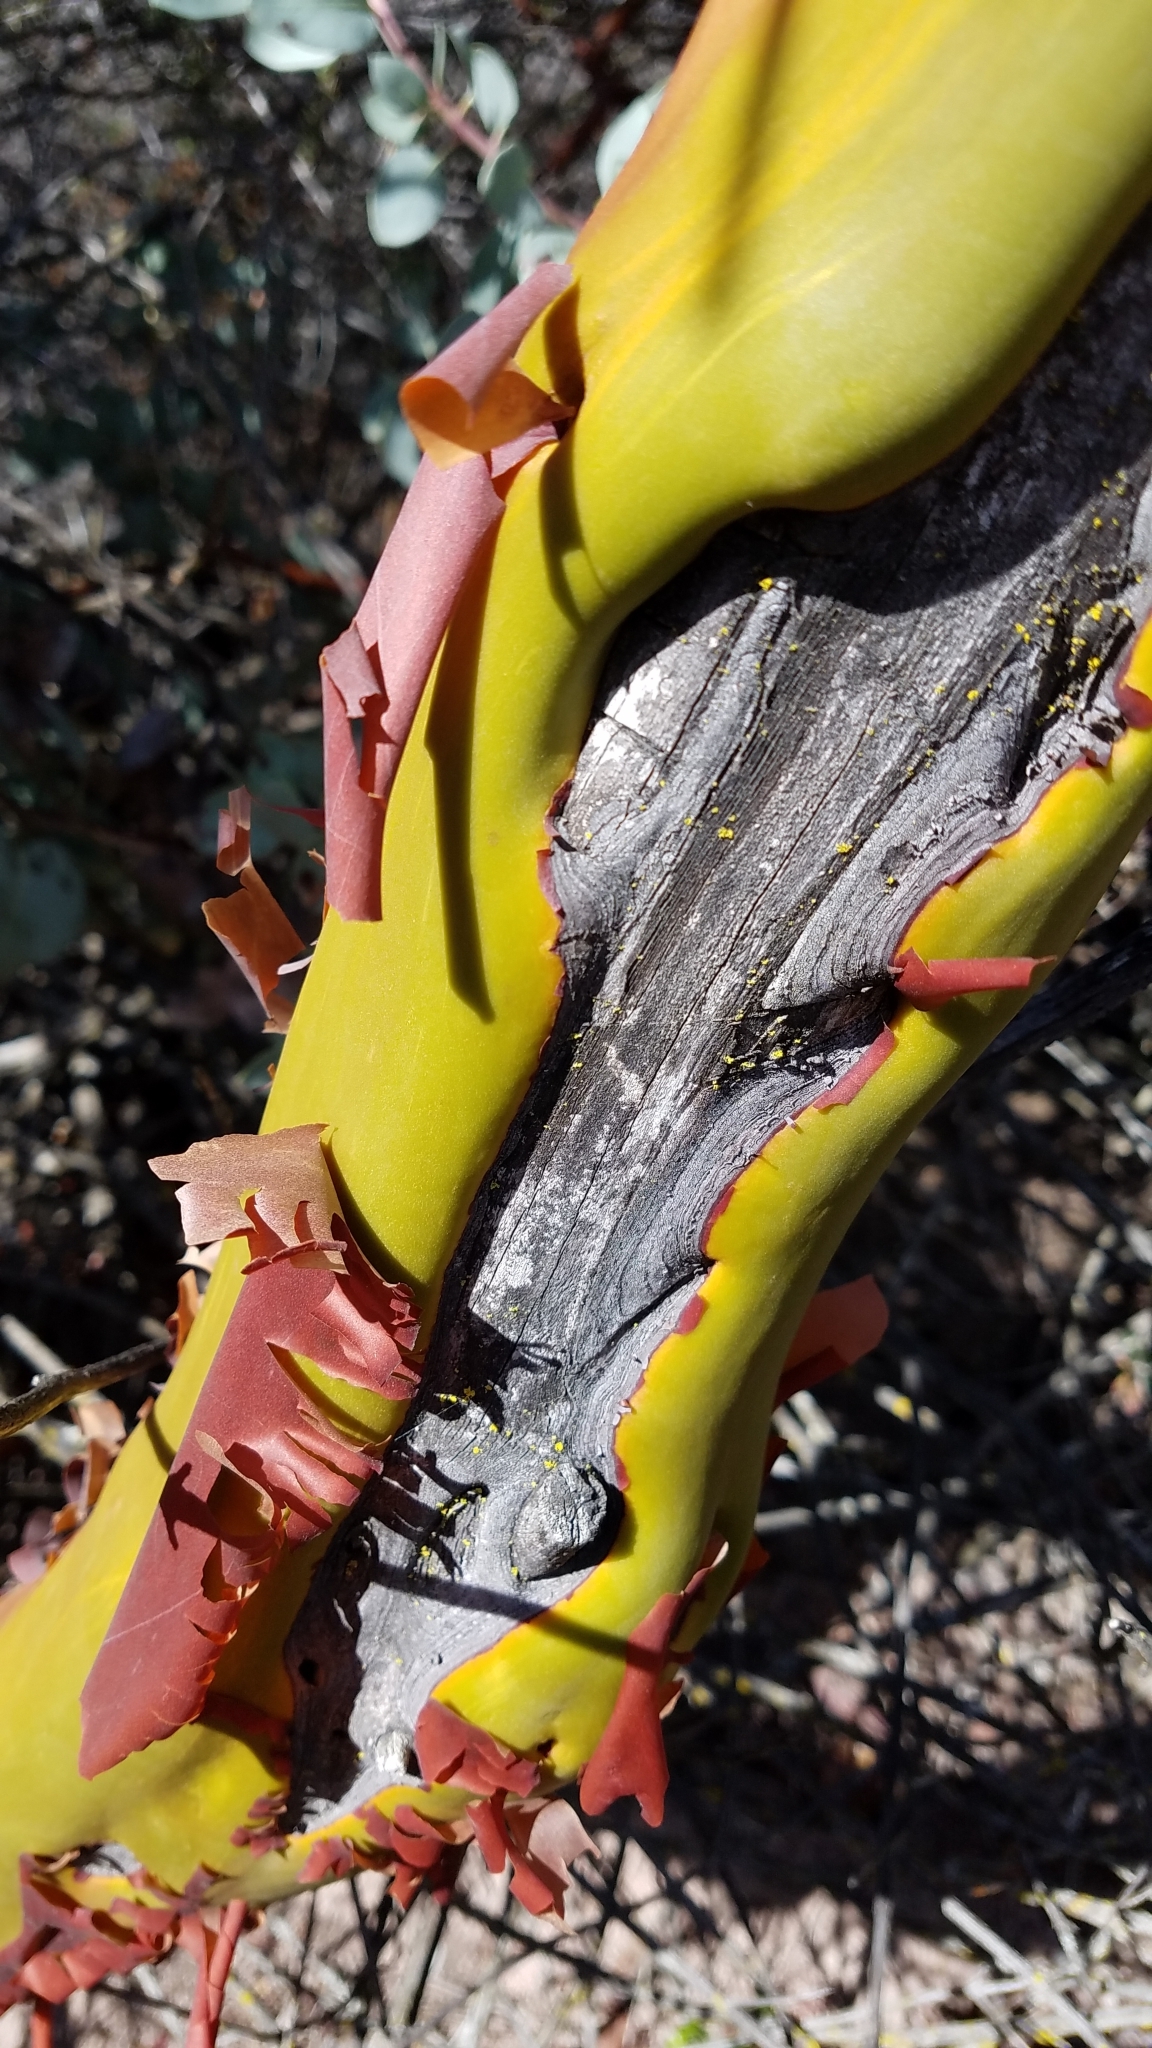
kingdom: Plantae
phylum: Tracheophyta
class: Magnoliopsida
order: Ericales
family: Ericaceae
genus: Arctostaphylos
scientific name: Arctostaphylos glauca
